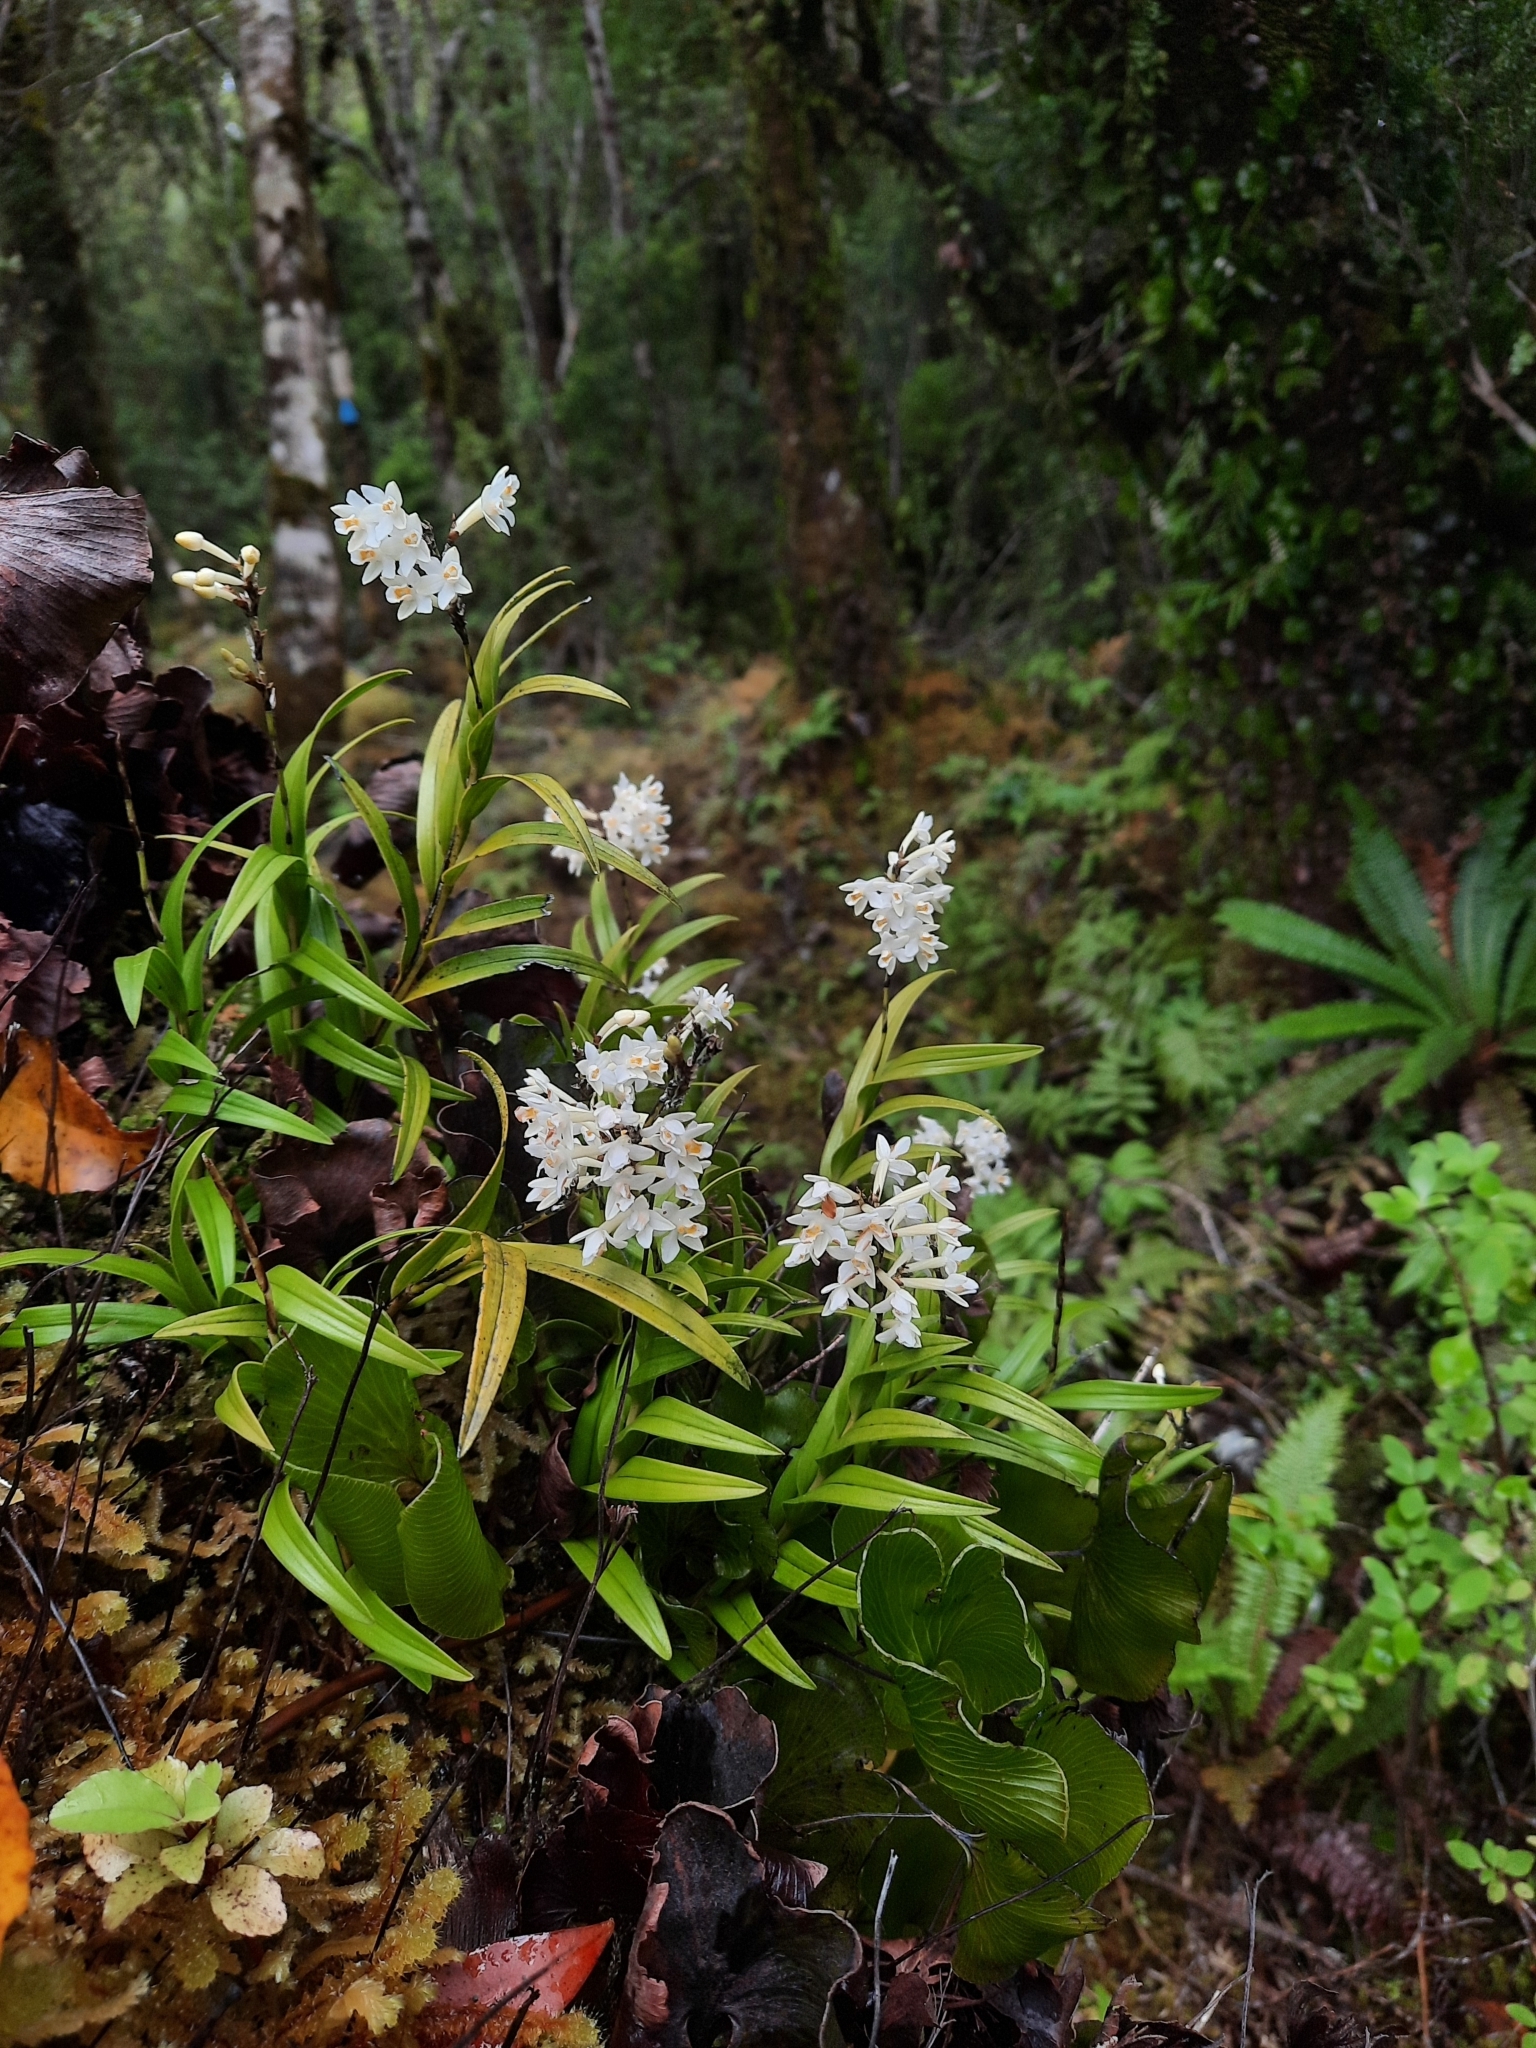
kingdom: Plantae
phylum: Tracheophyta
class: Liliopsida
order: Asparagales
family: Orchidaceae
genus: Earina
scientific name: Earina autumnalis
